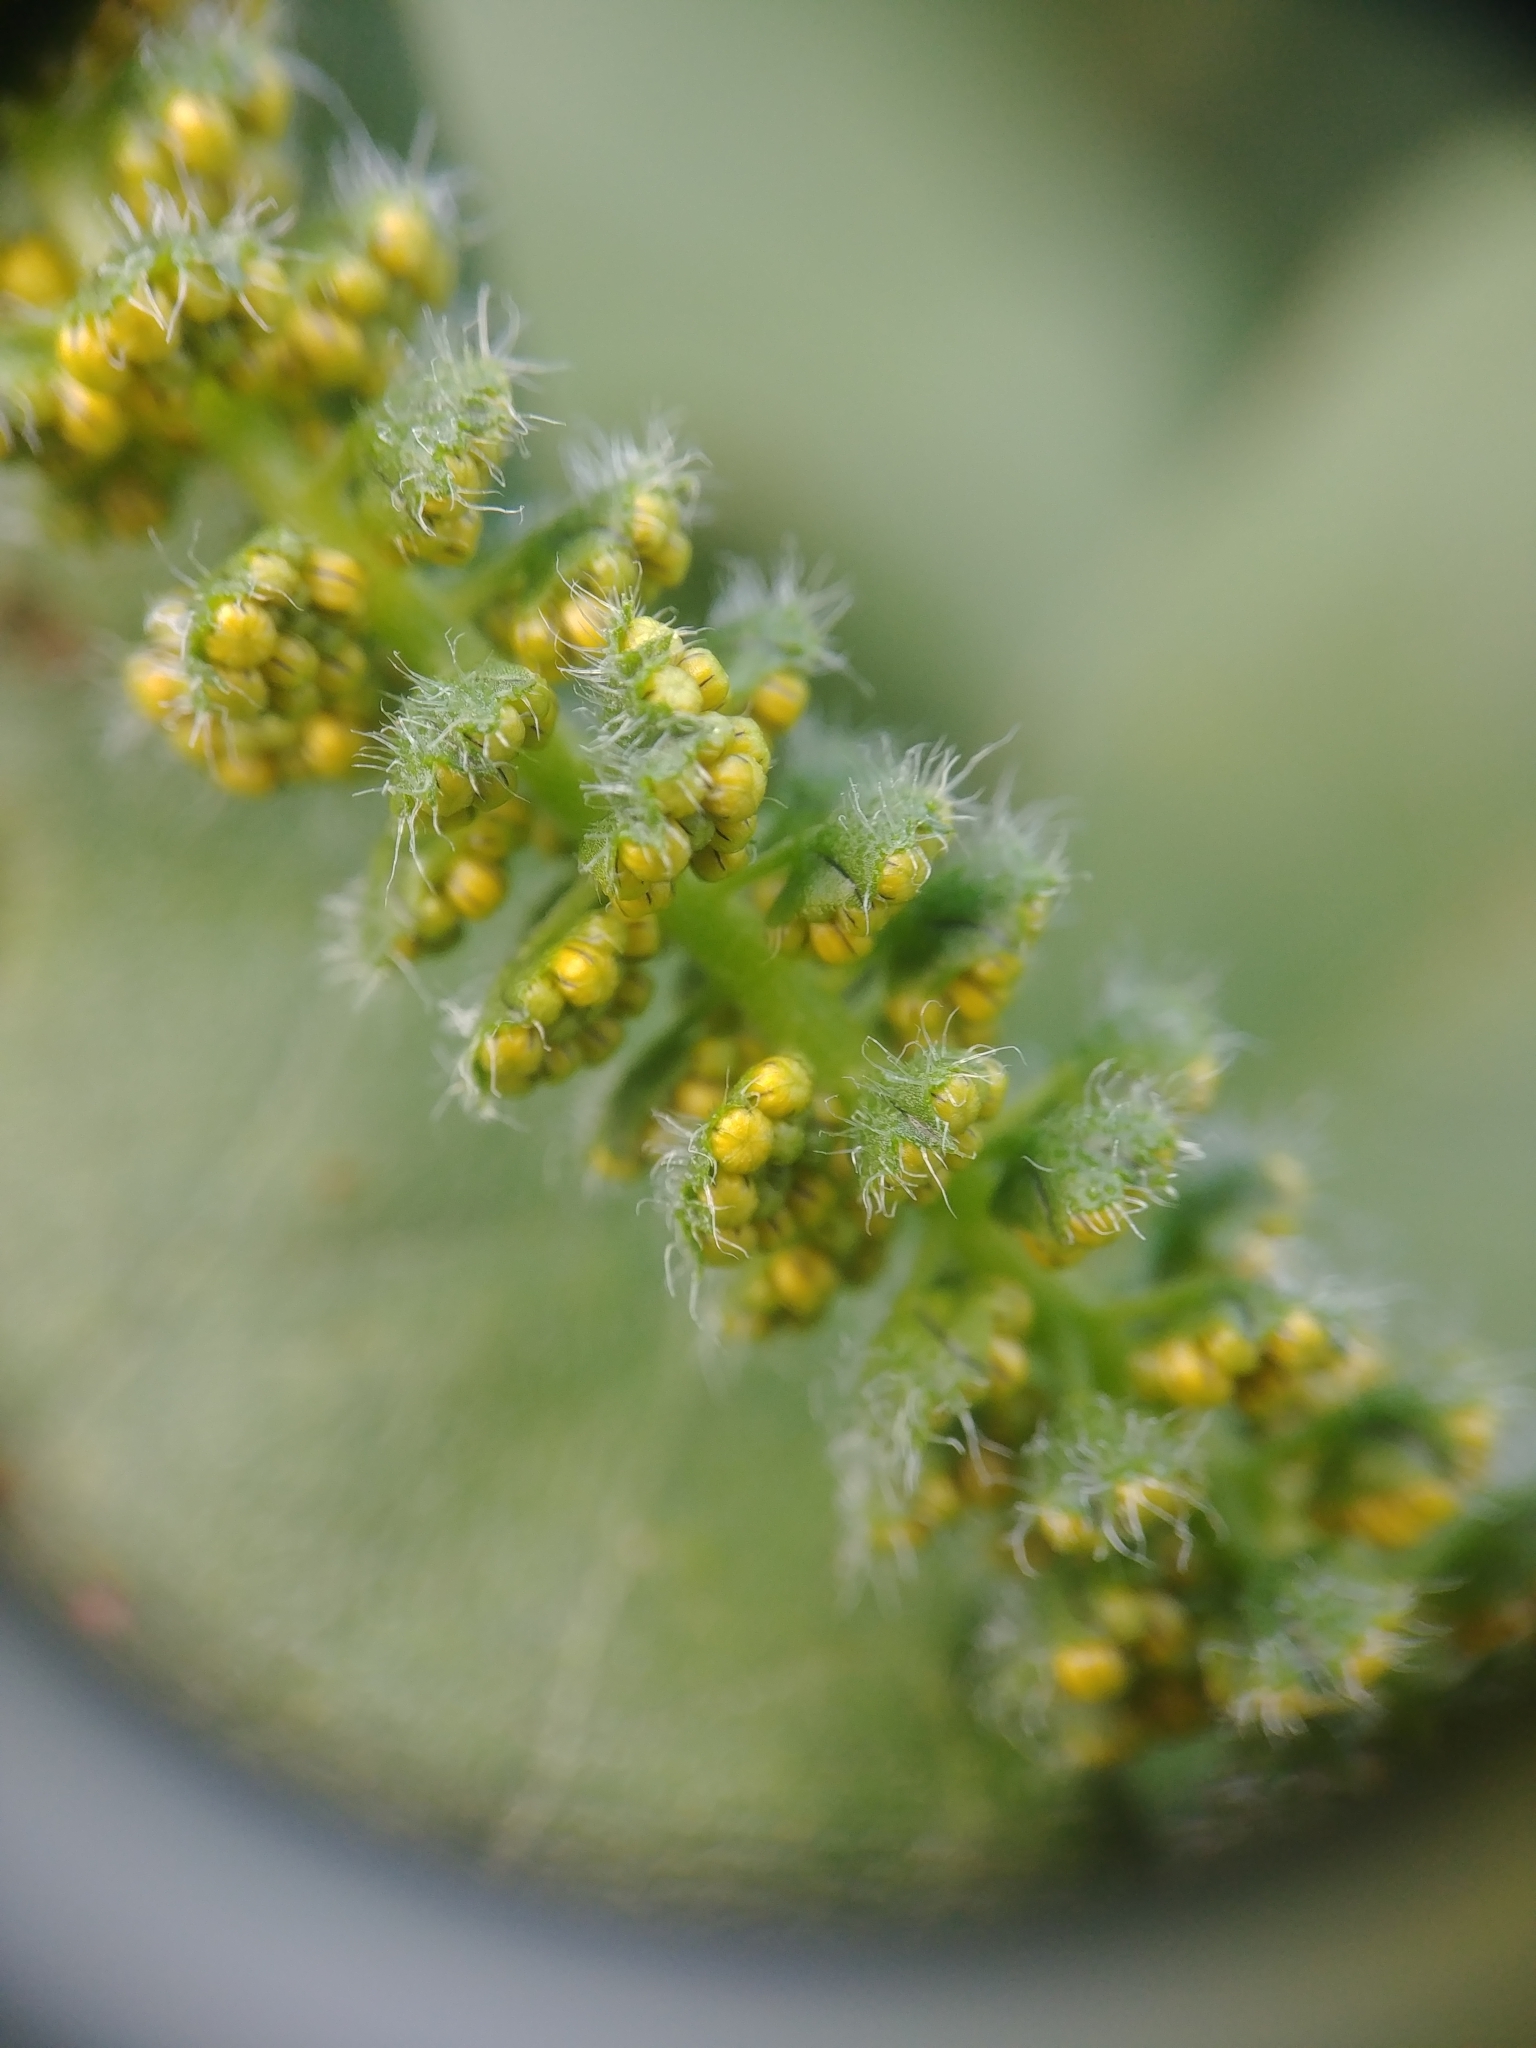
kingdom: Plantae
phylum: Tracheophyta
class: Magnoliopsida
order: Asterales
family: Asteraceae
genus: Ambrosia
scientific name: Ambrosia trifida
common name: Giant ragweed
